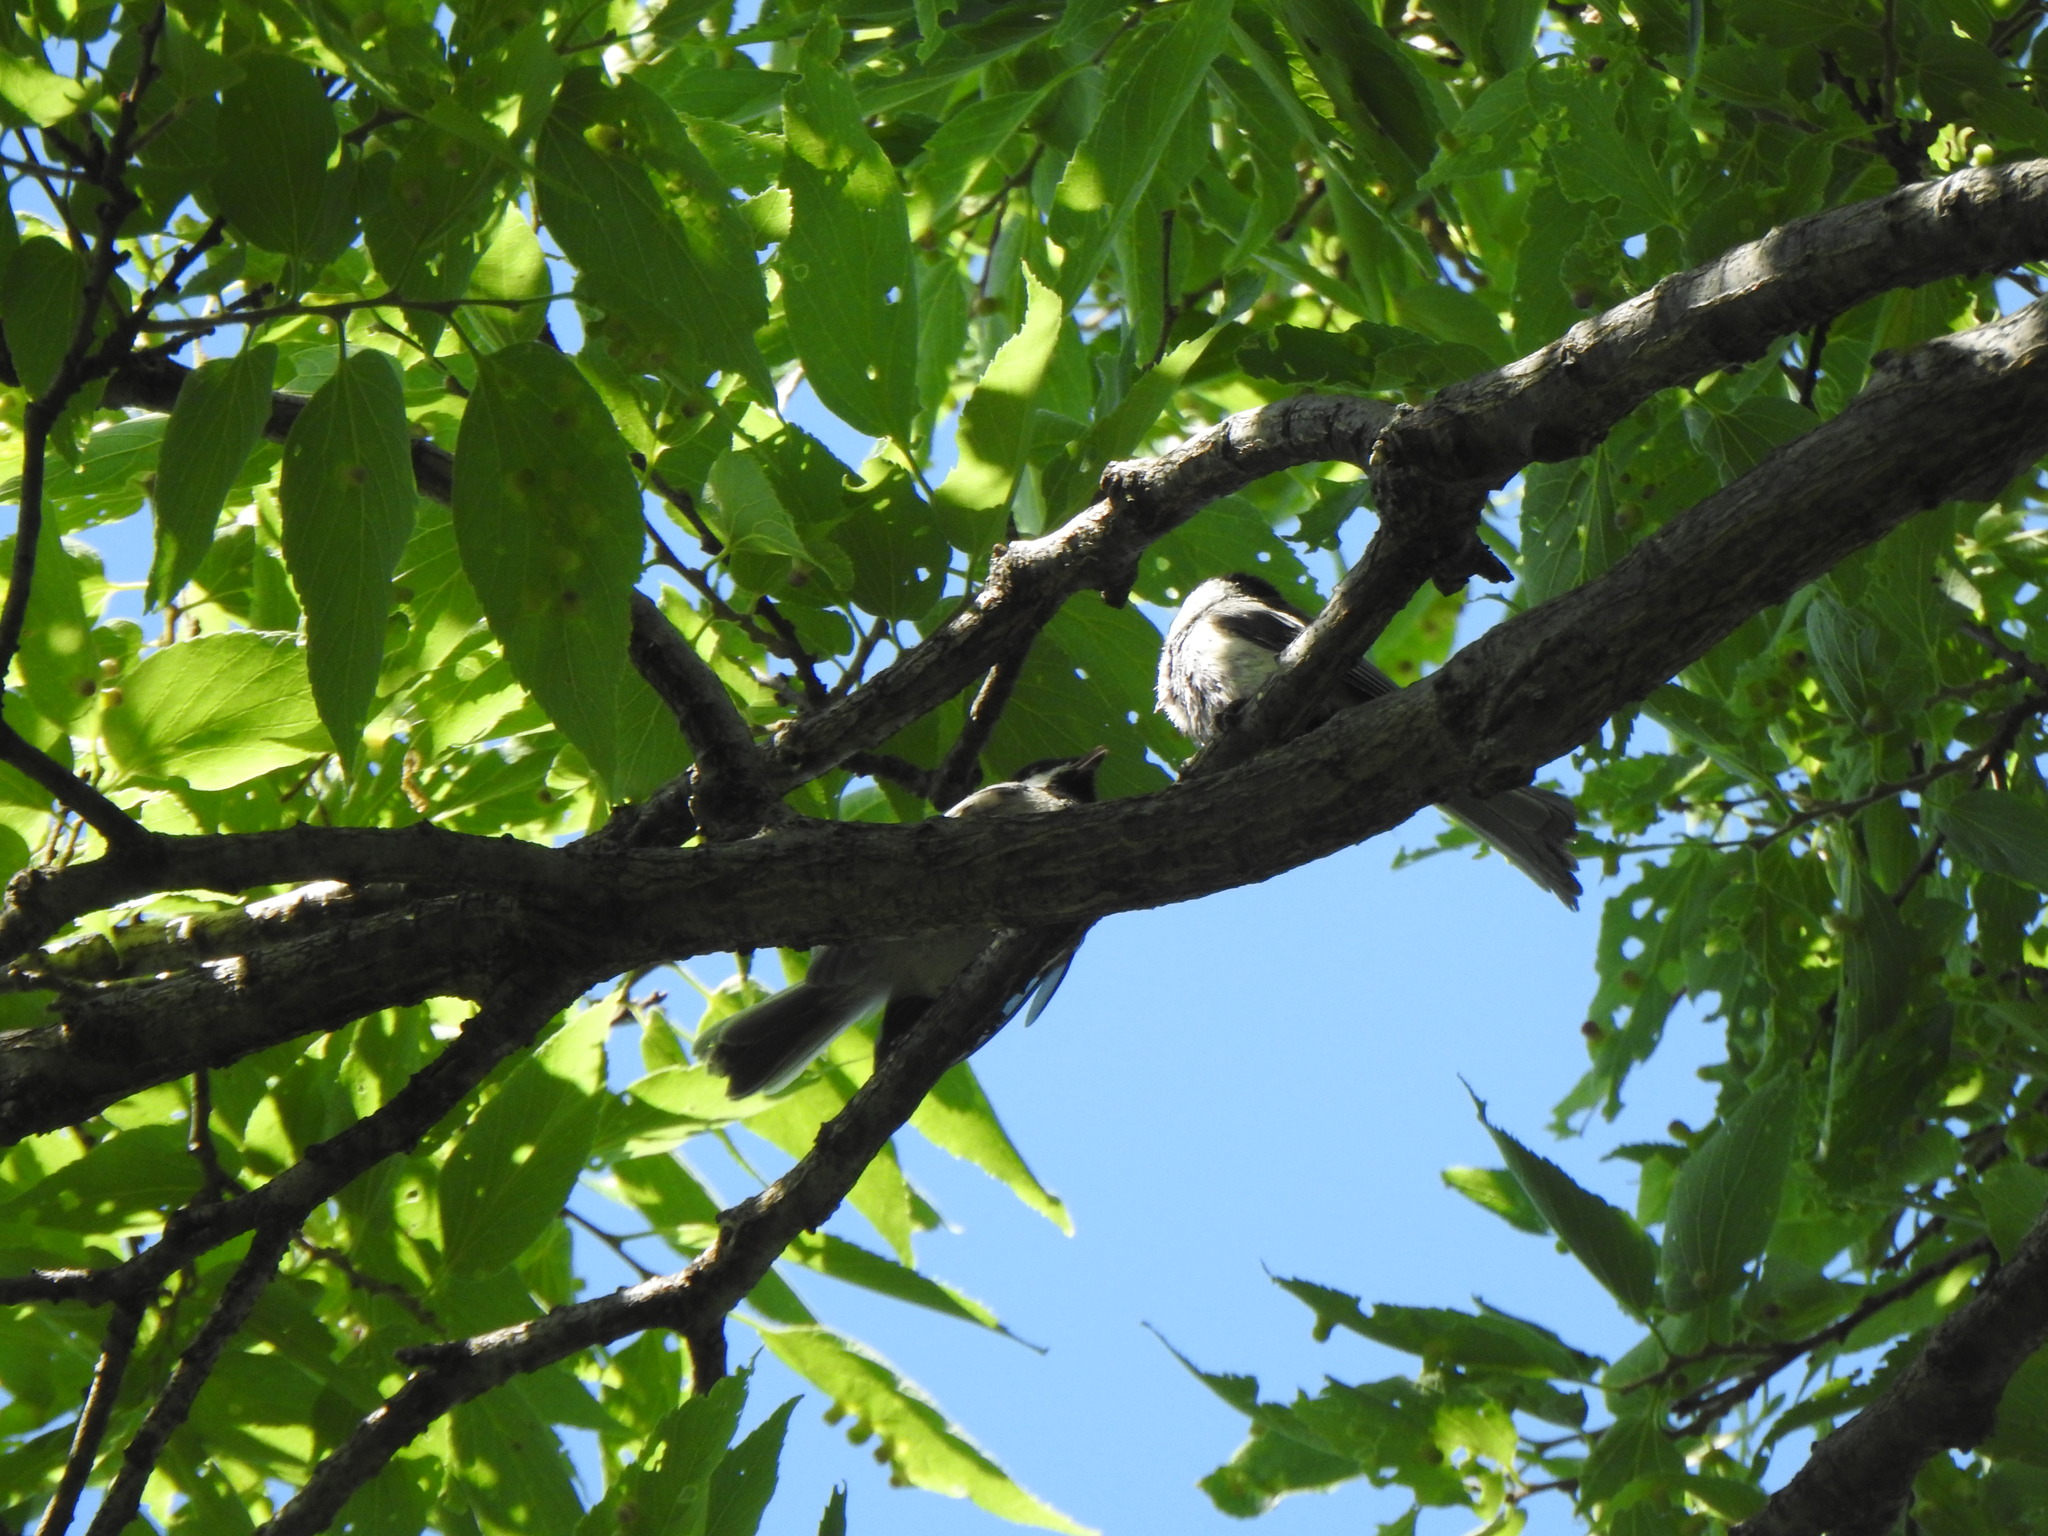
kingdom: Animalia
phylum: Chordata
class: Aves
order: Passeriformes
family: Paridae
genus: Poecile
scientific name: Poecile atricapillus
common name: Black-capped chickadee
